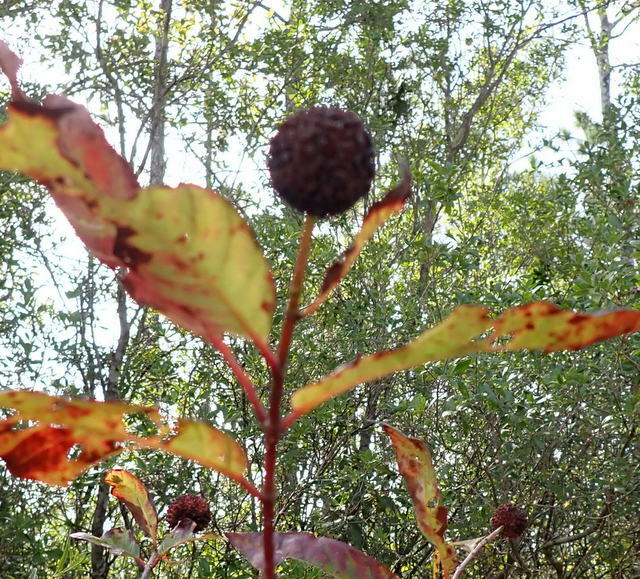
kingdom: Plantae
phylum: Tracheophyta
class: Magnoliopsida
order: Gentianales
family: Rubiaceae
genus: Cephalanthus
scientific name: Cephalanthus occidentalis
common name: Button-willow
